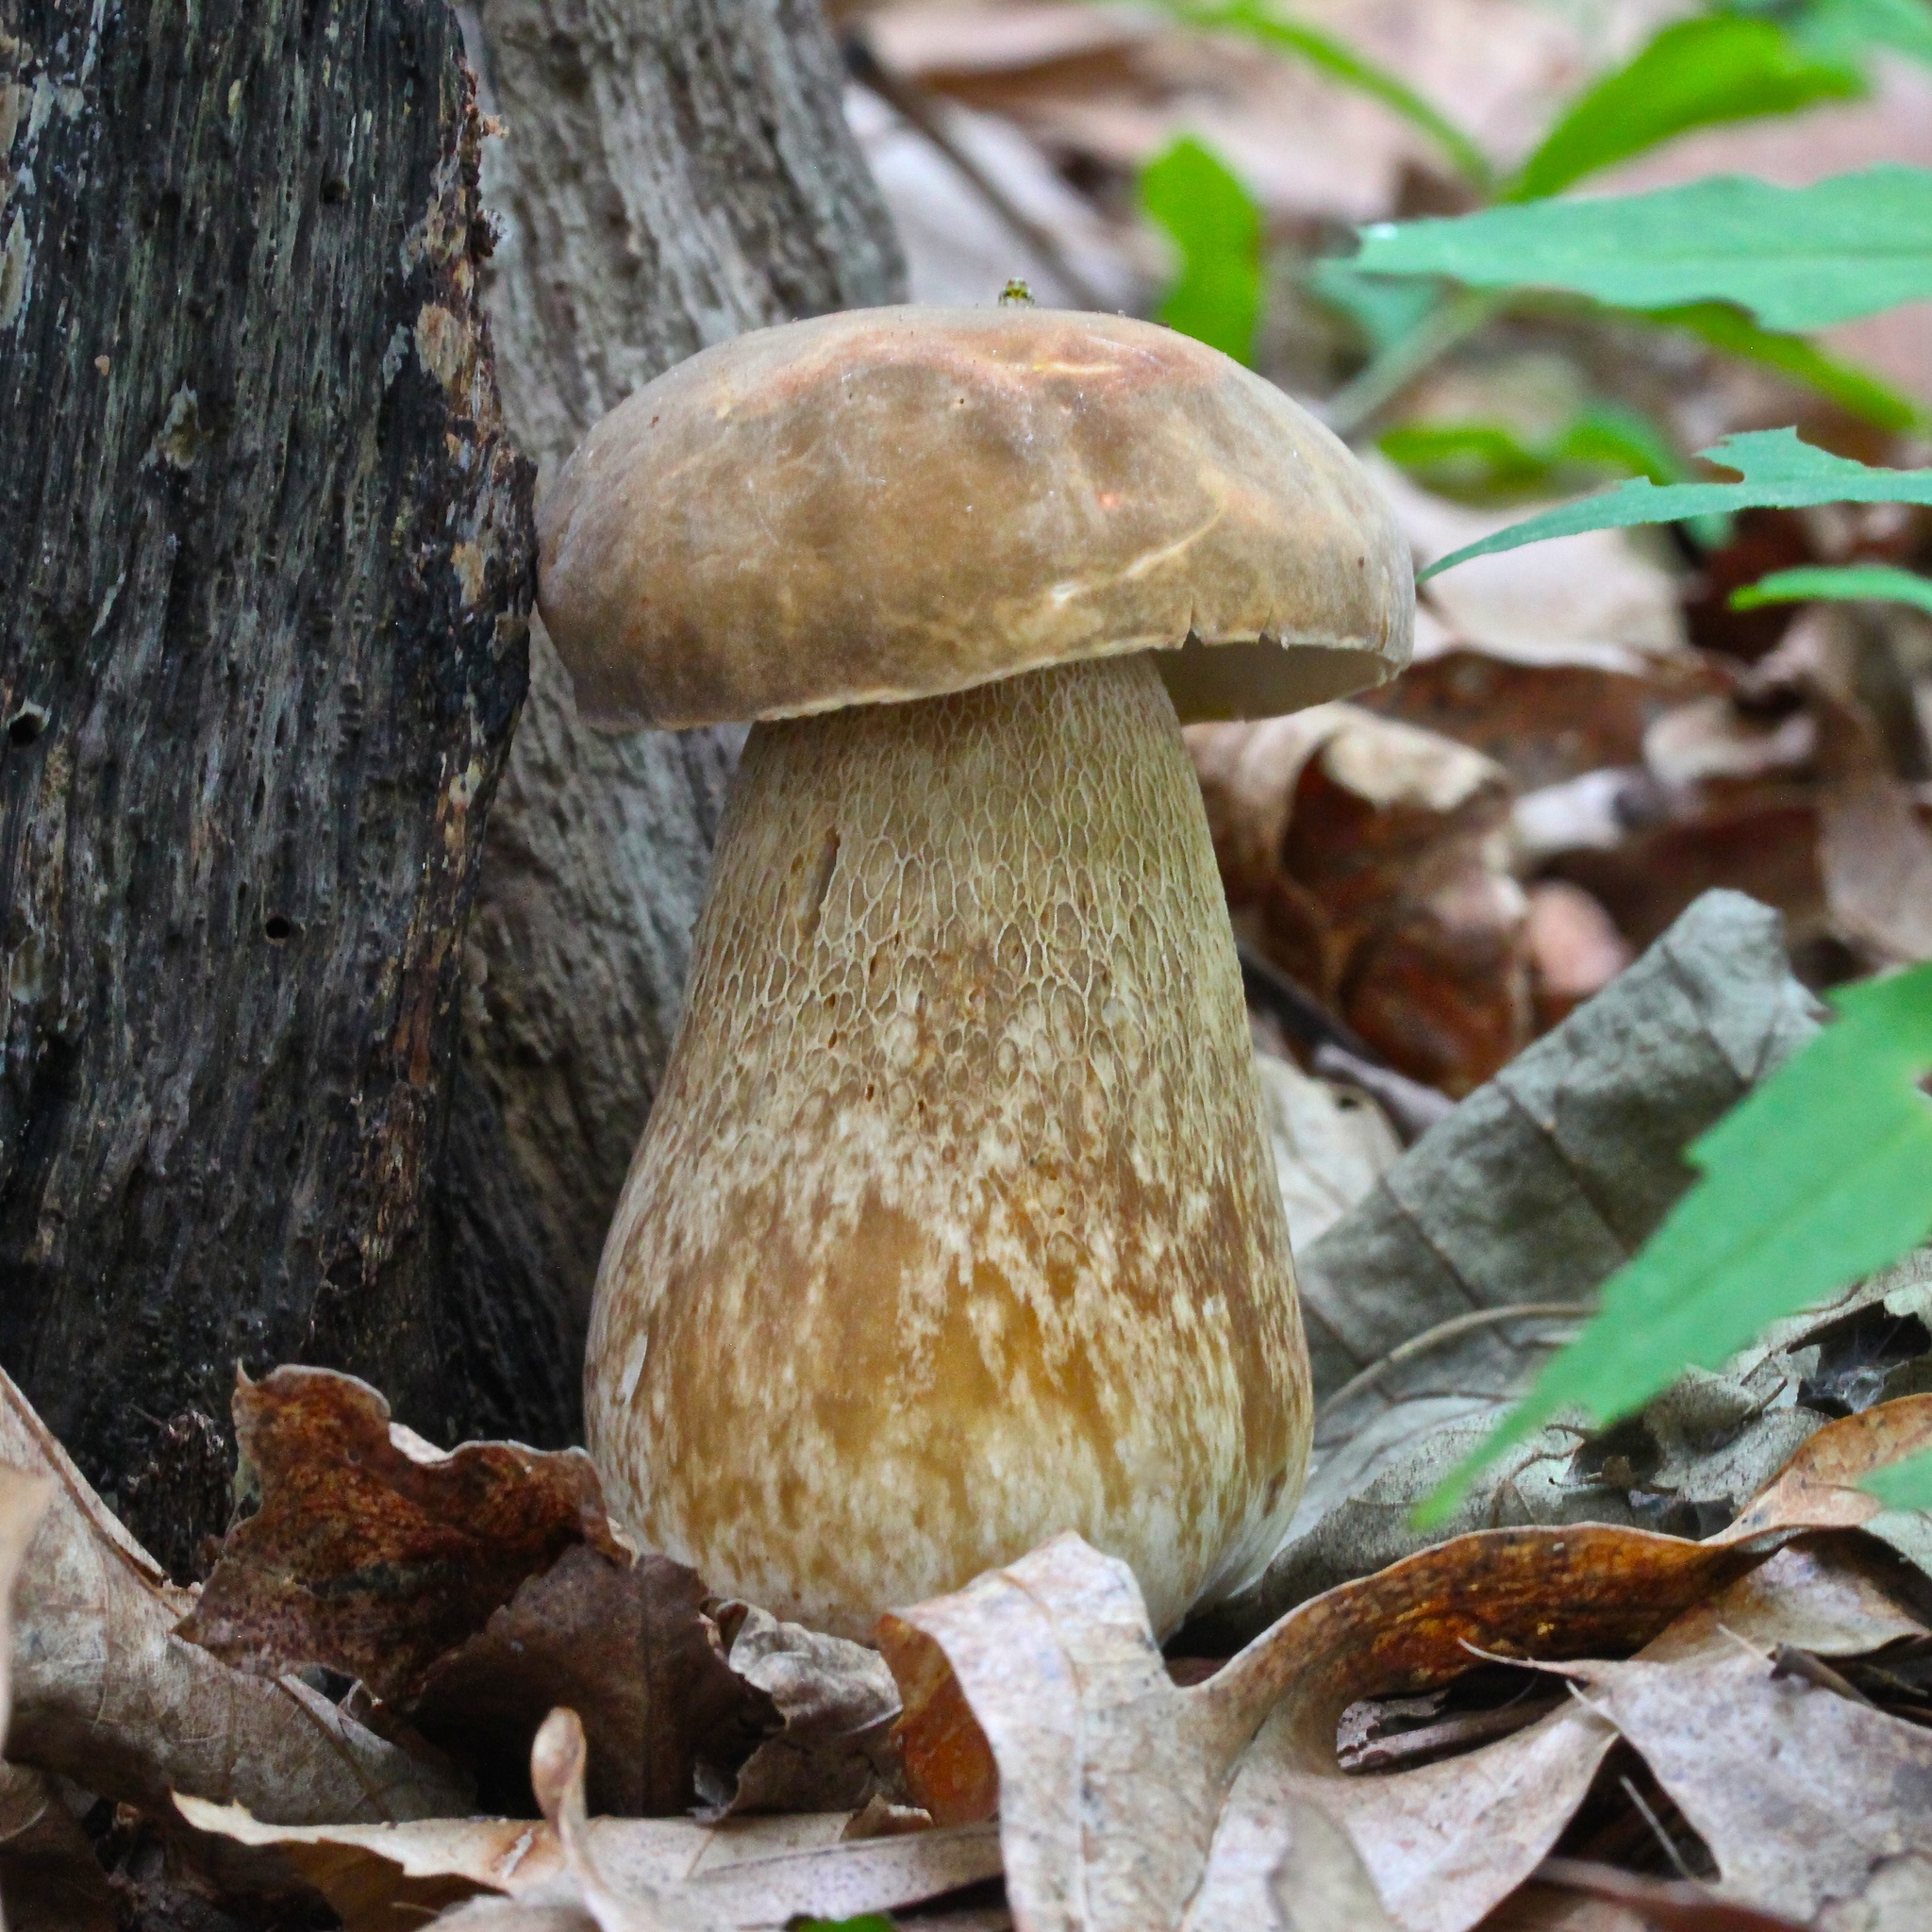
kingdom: Fungi
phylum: Basidiomycota
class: Agaricomycetes
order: Boletales
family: Boletaceae
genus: Boletus
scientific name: Boletus variipes
